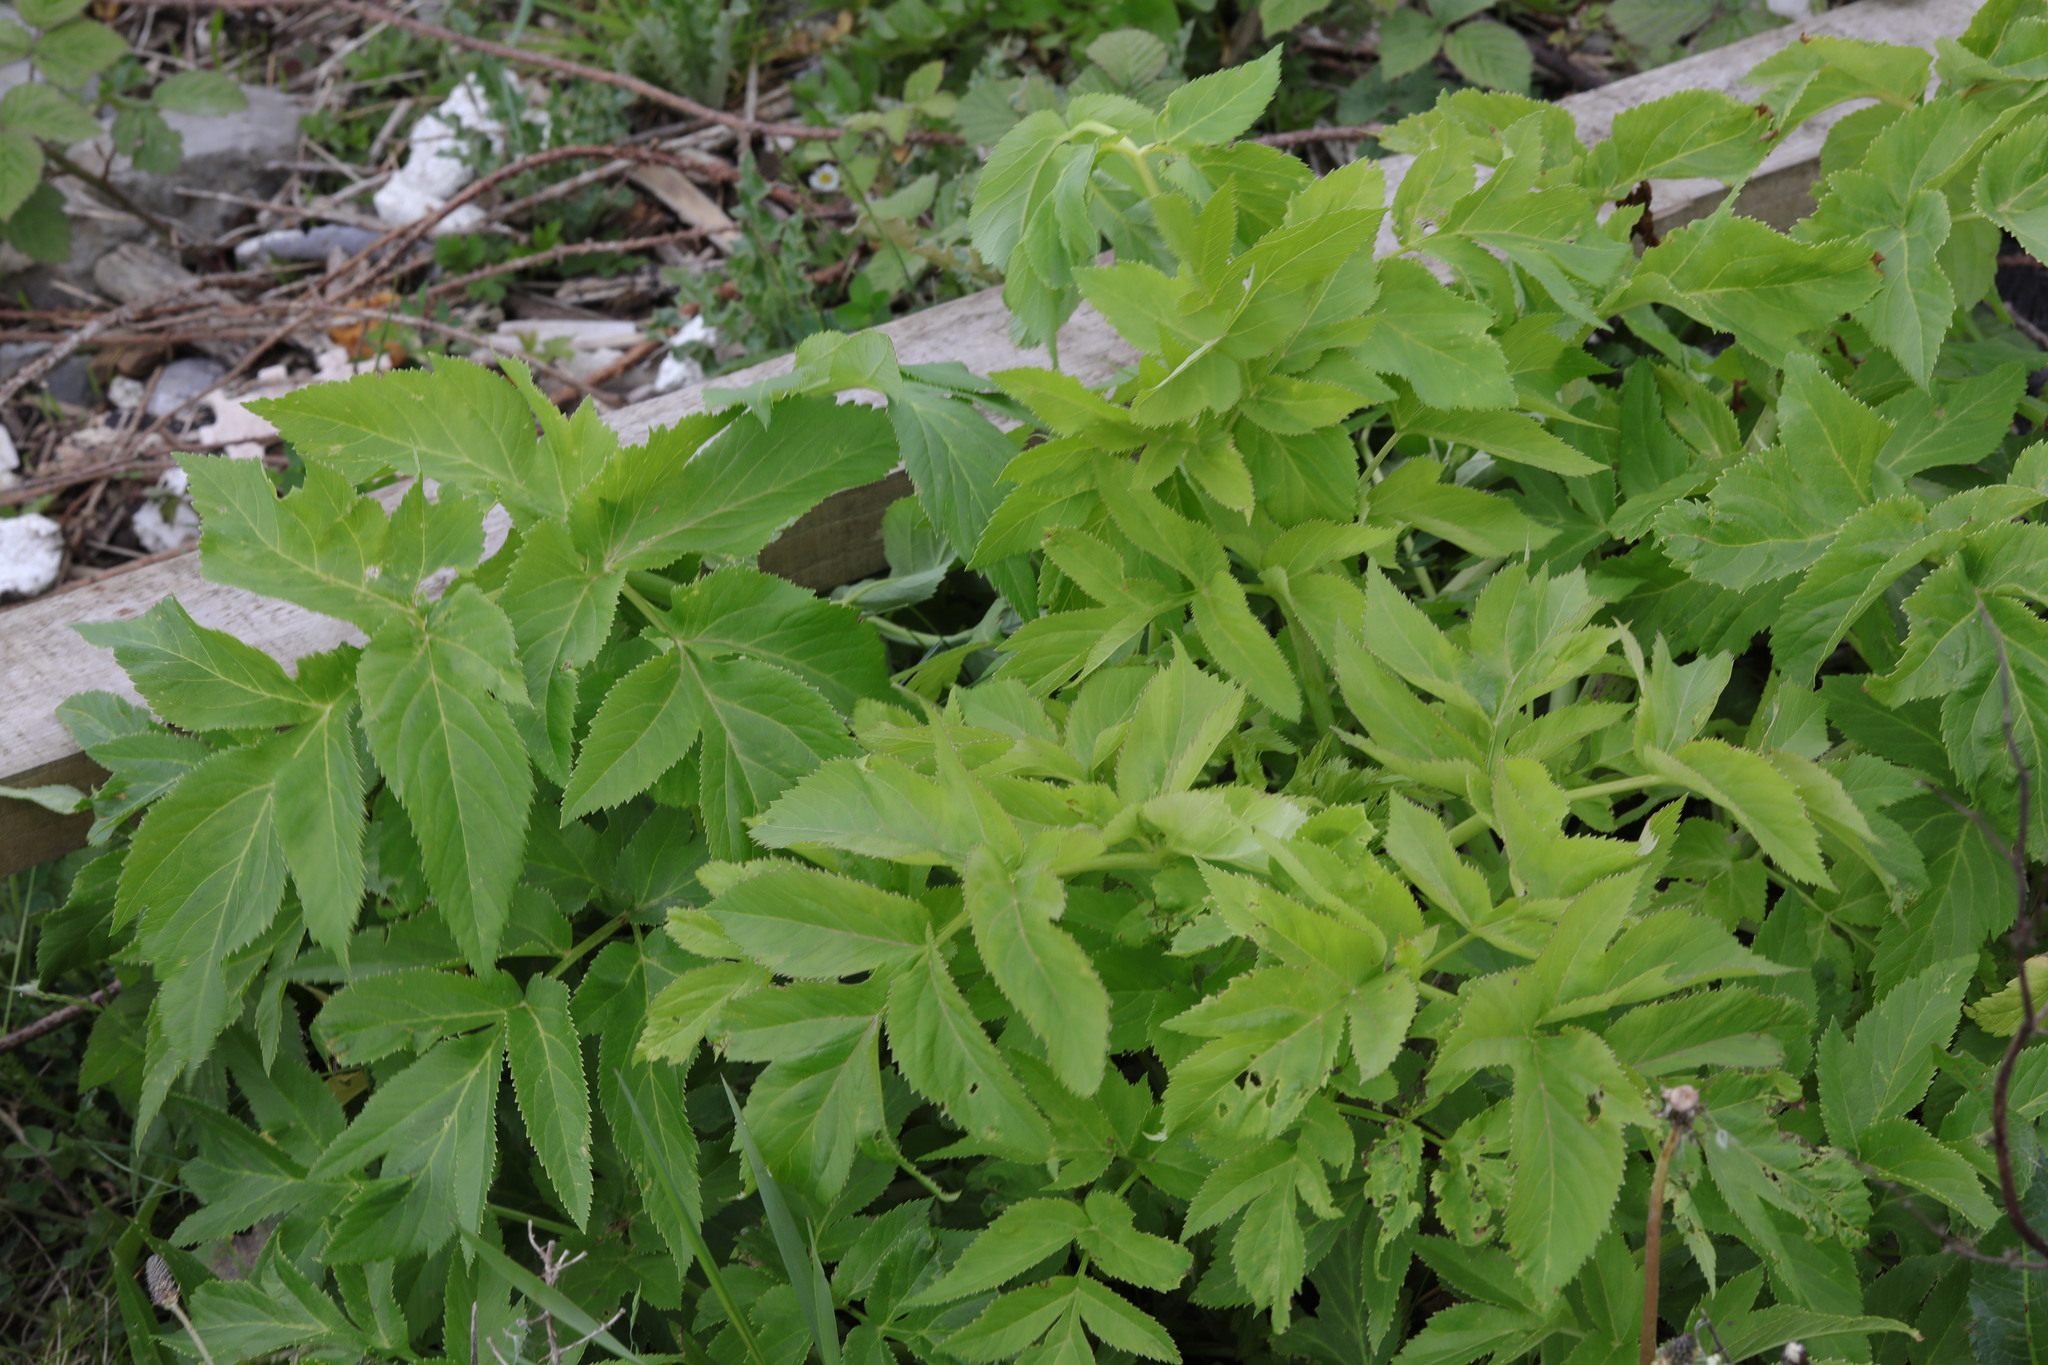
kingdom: Plantae
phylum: Tracheophyta
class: Magnoliopsida
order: Apiales
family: Apiaceae
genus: Pastinaca
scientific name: Pastinaca sativa
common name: Wild parsnip
